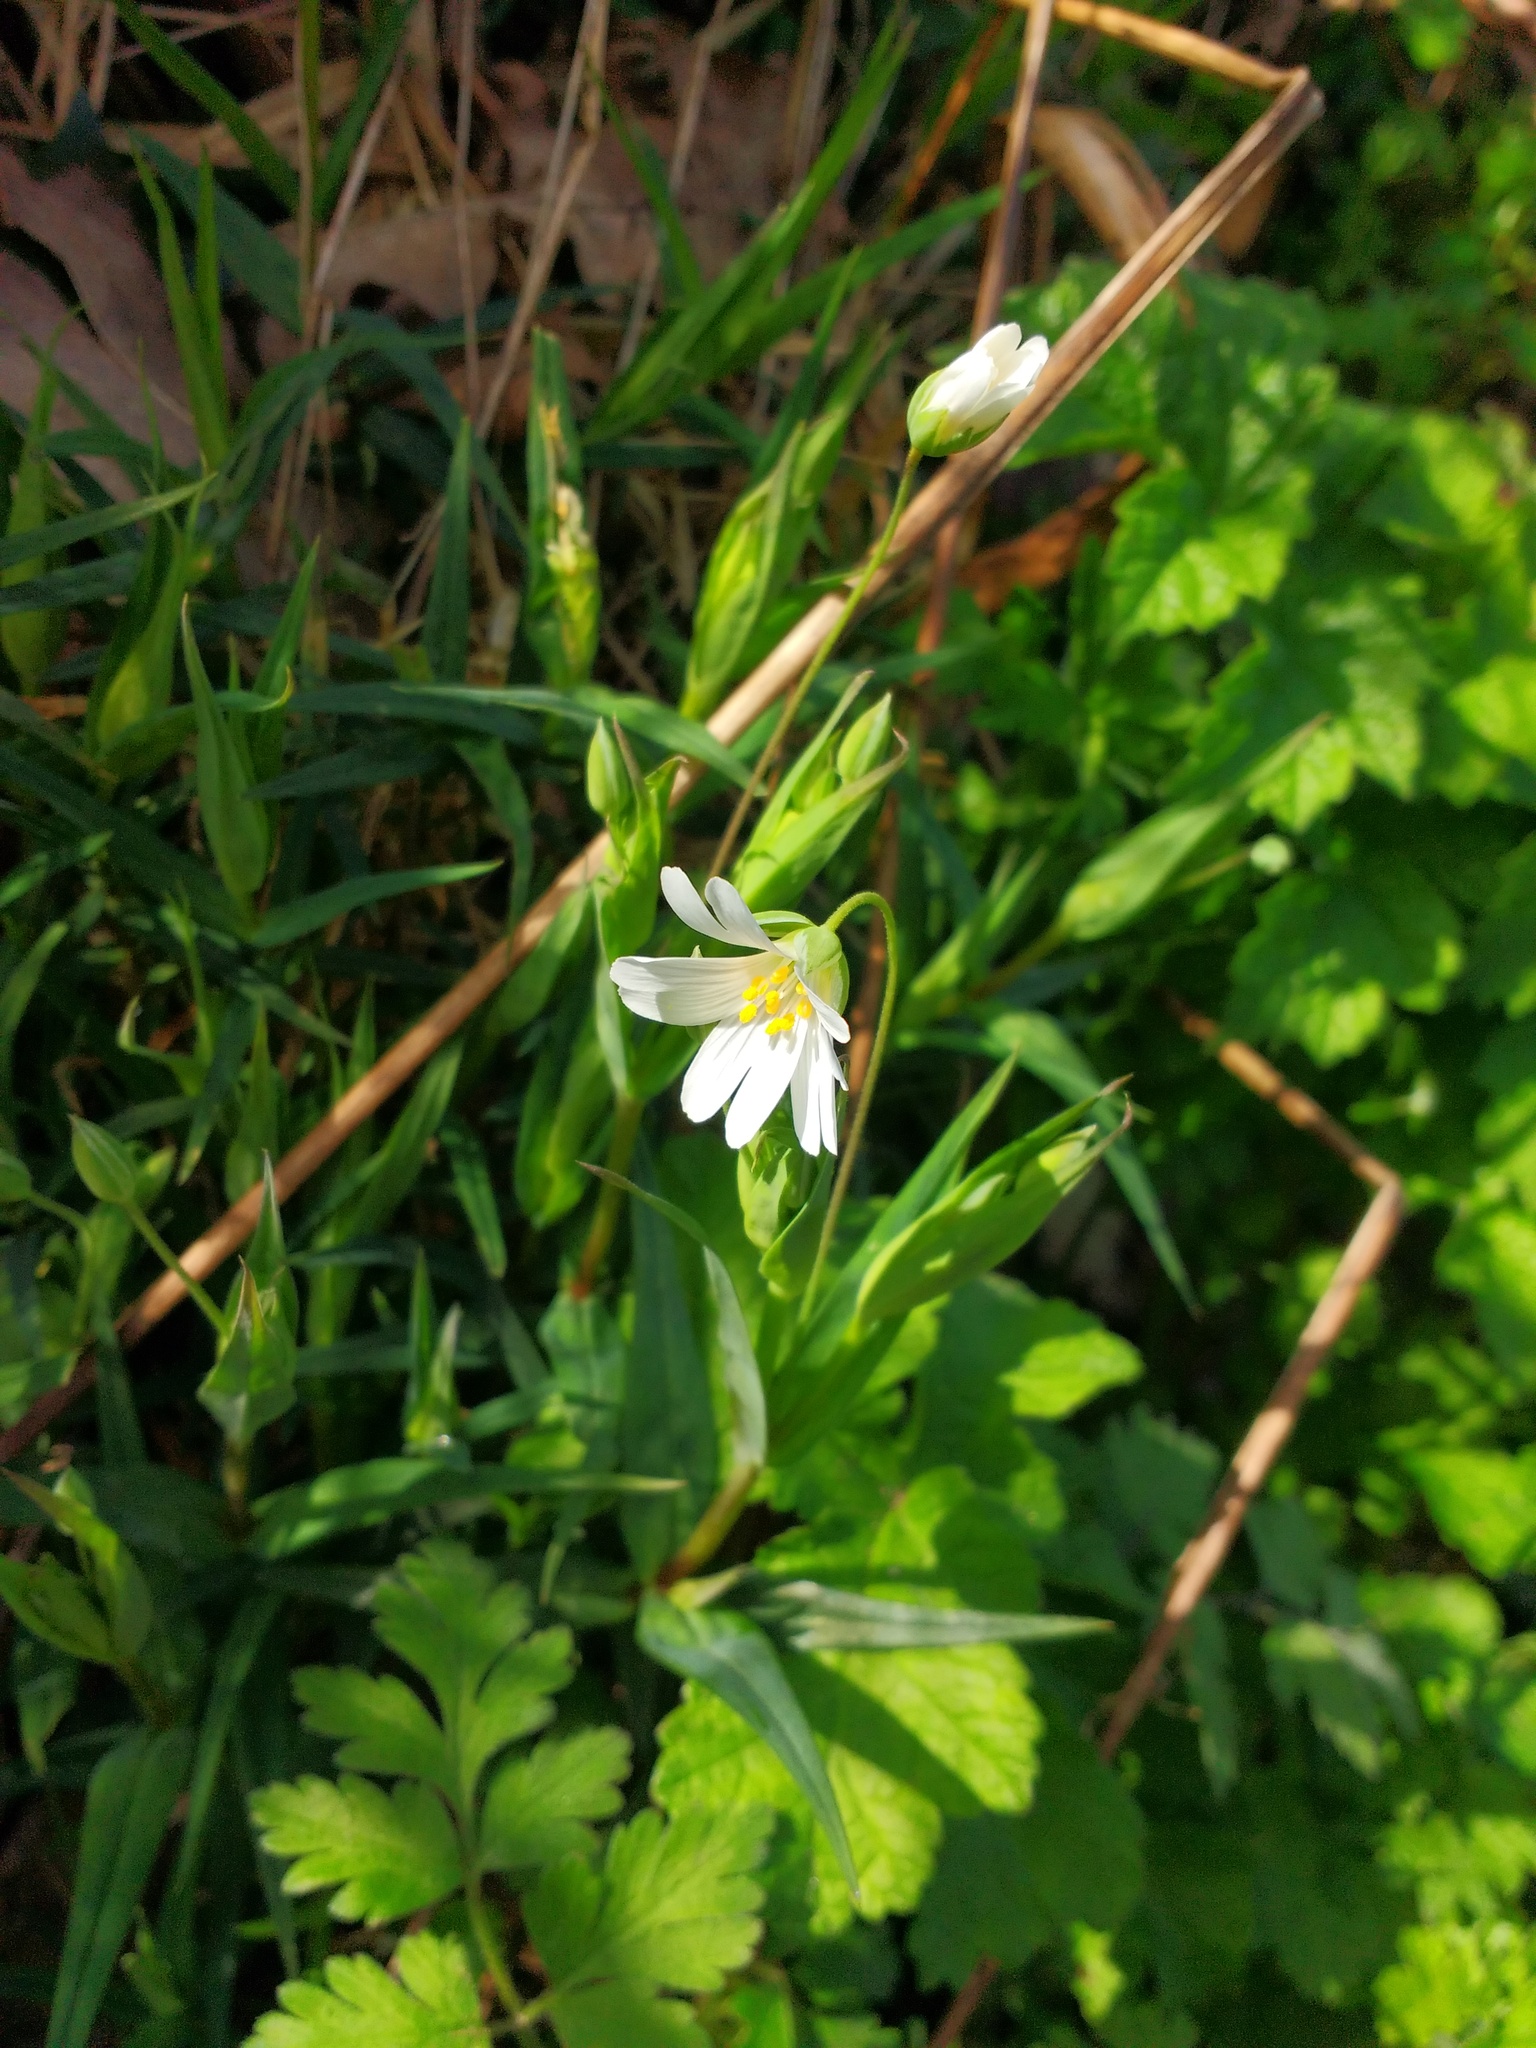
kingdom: Plantae
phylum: Tracheophyta
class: Magnoliopsida
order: Caryophyllales
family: Caryophyllaceae
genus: Rabelera
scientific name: Rabelera holostea
